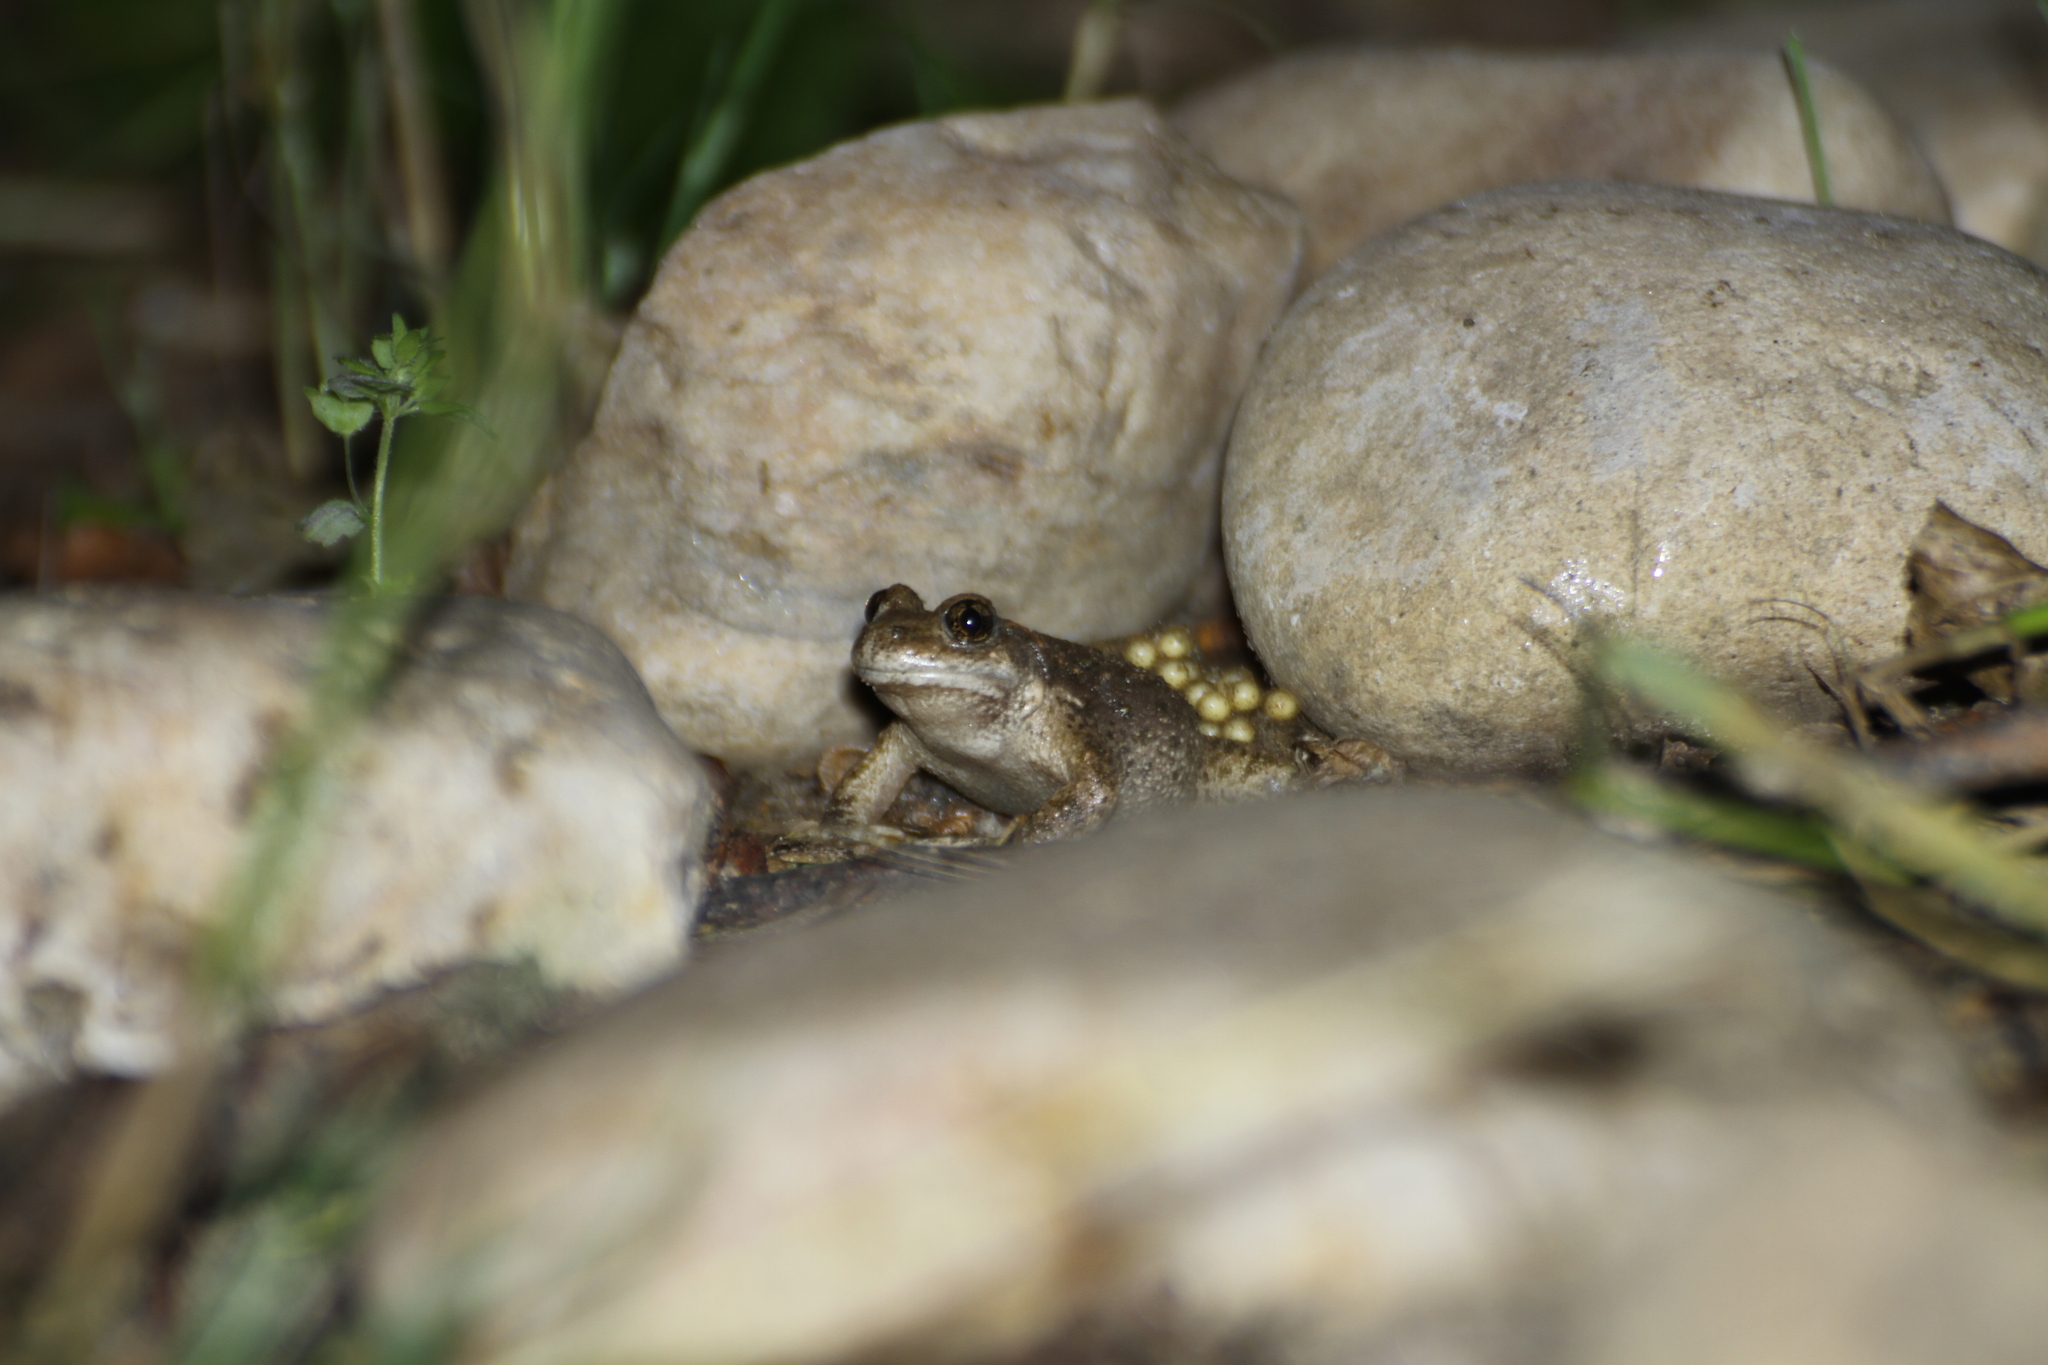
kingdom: Animalia
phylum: Chordata
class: Amphibia
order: Anura
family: Alytidae
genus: Alytes
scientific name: Alytes obstetricans
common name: Midwife toad
